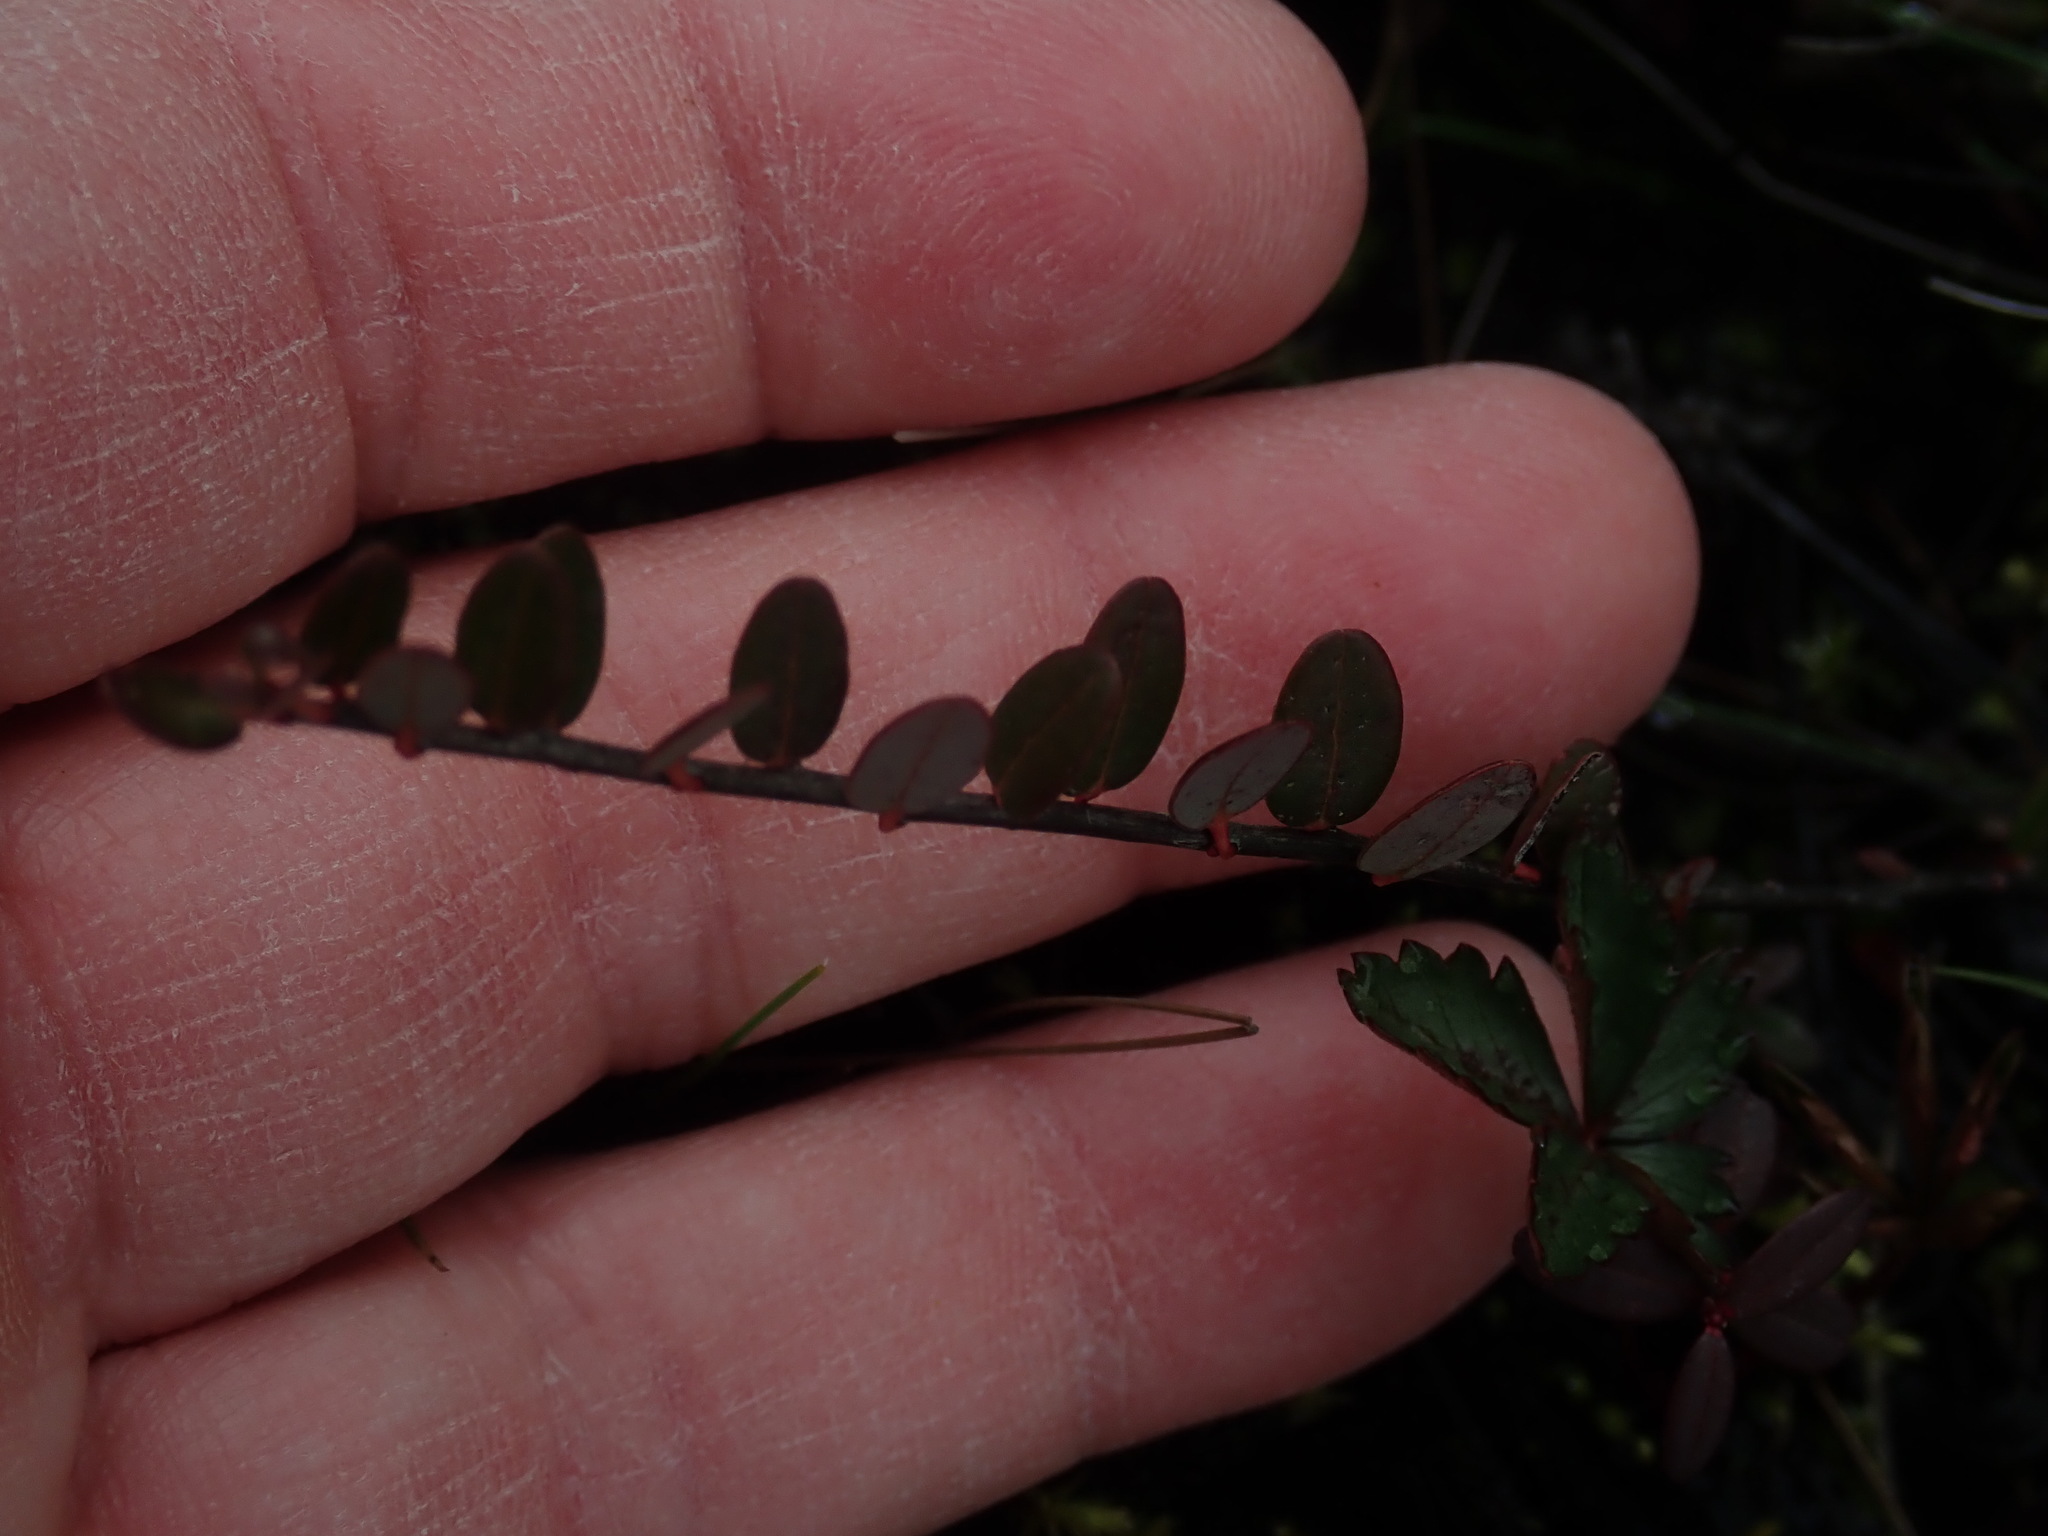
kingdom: Plantae
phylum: Tracheophyta
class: Magnoliopsida
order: Ericales
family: Ericaceae
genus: Vaccinium
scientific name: Vaccinium macrocarpon
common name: American cranberry
